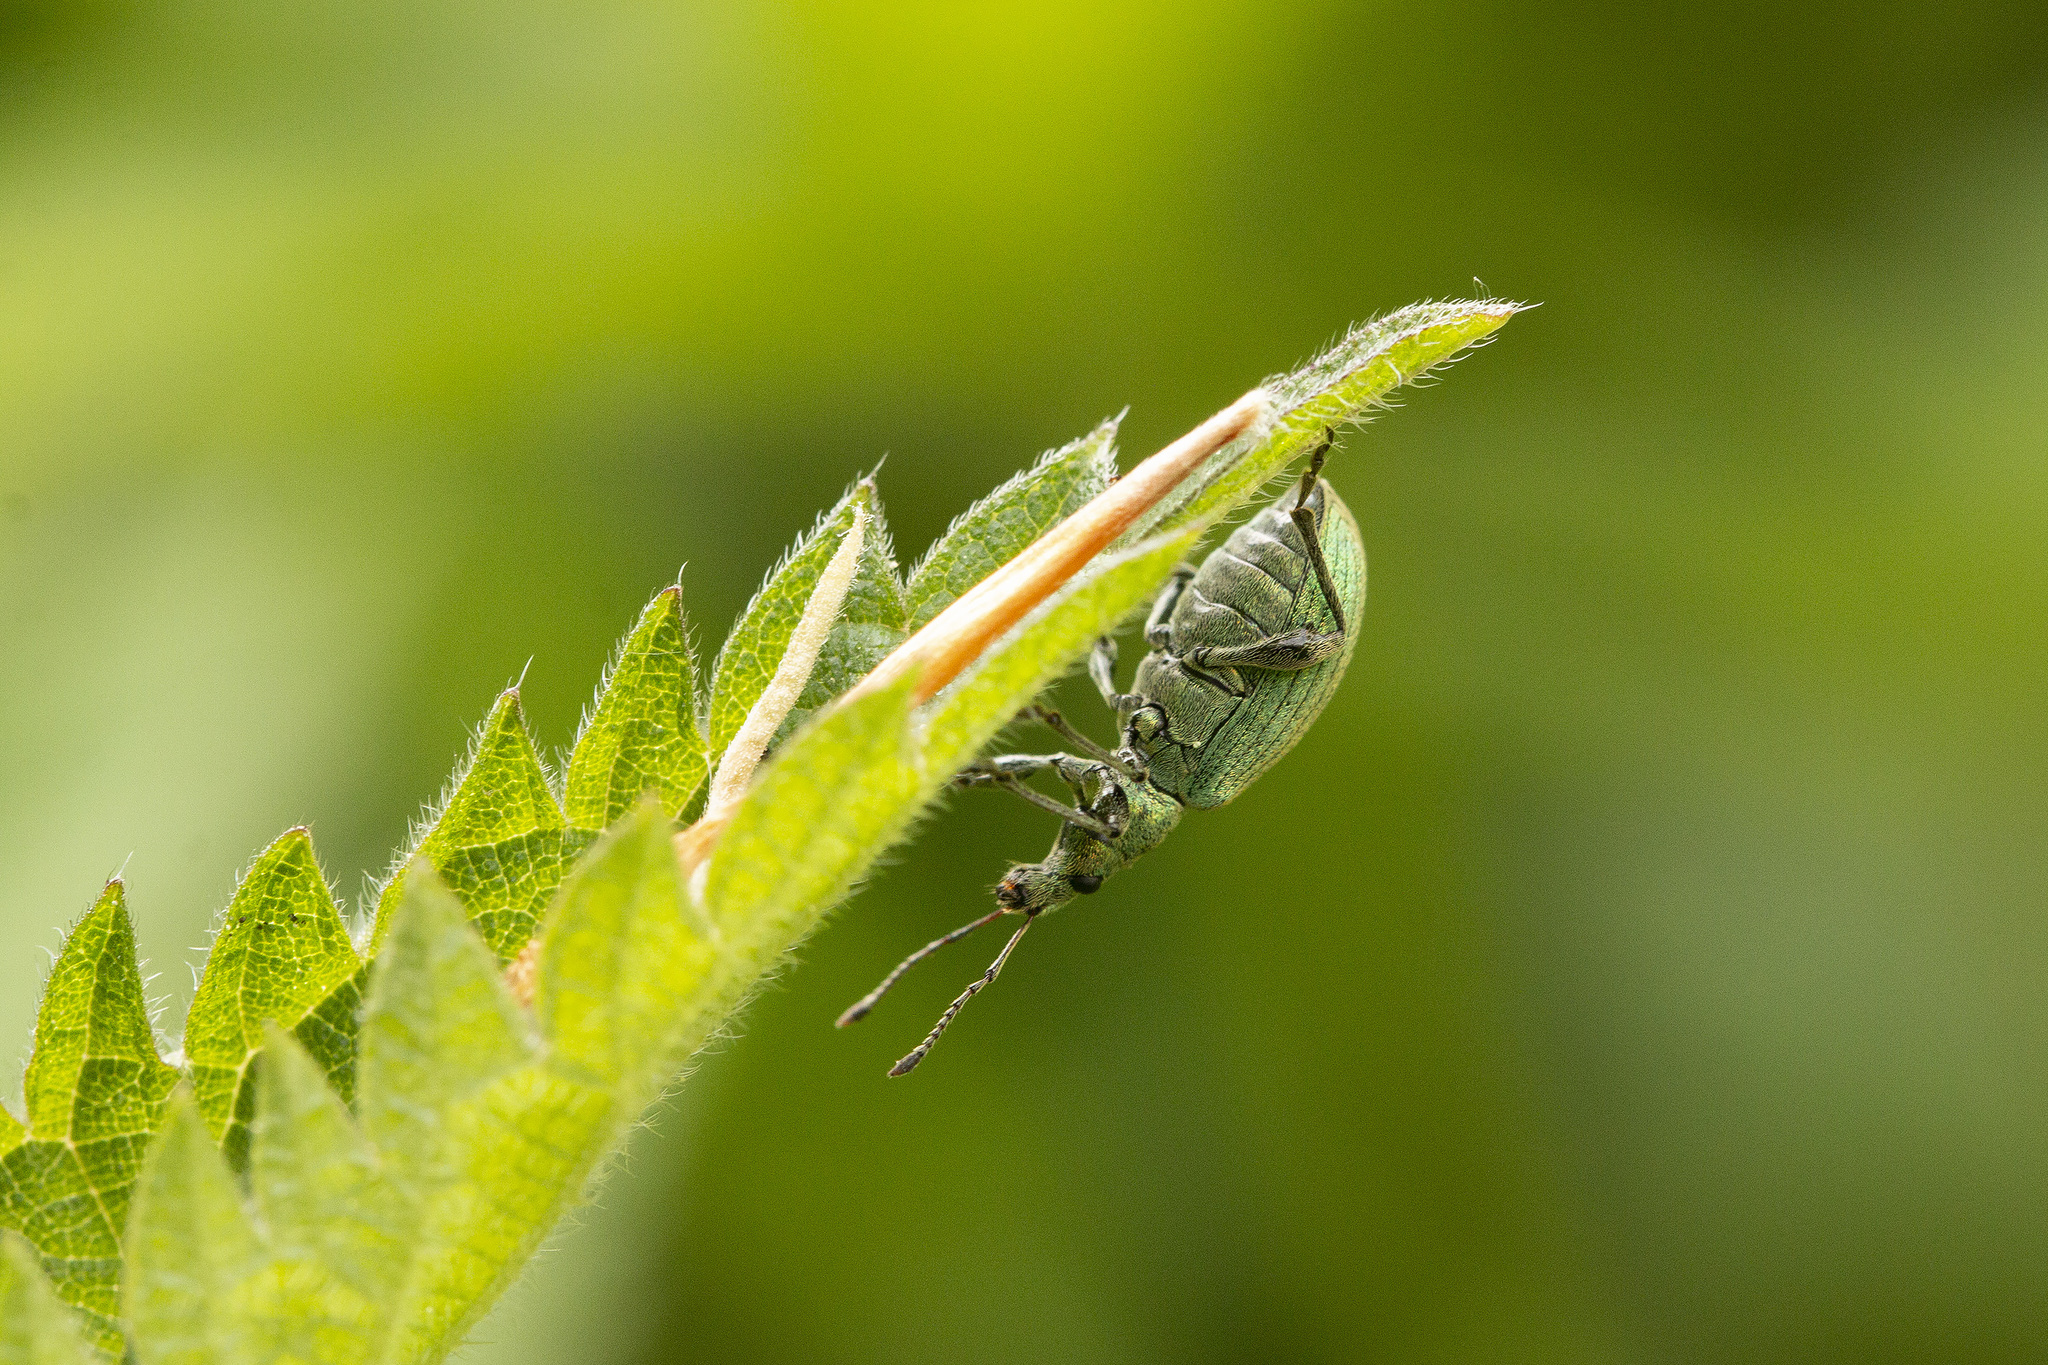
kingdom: Animalia
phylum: Arthropoda
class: Insecta
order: Coleoptera
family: Curculionidae
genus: Phyllobius
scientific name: Phyllobius pomaceus
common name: Green nettle weevil
